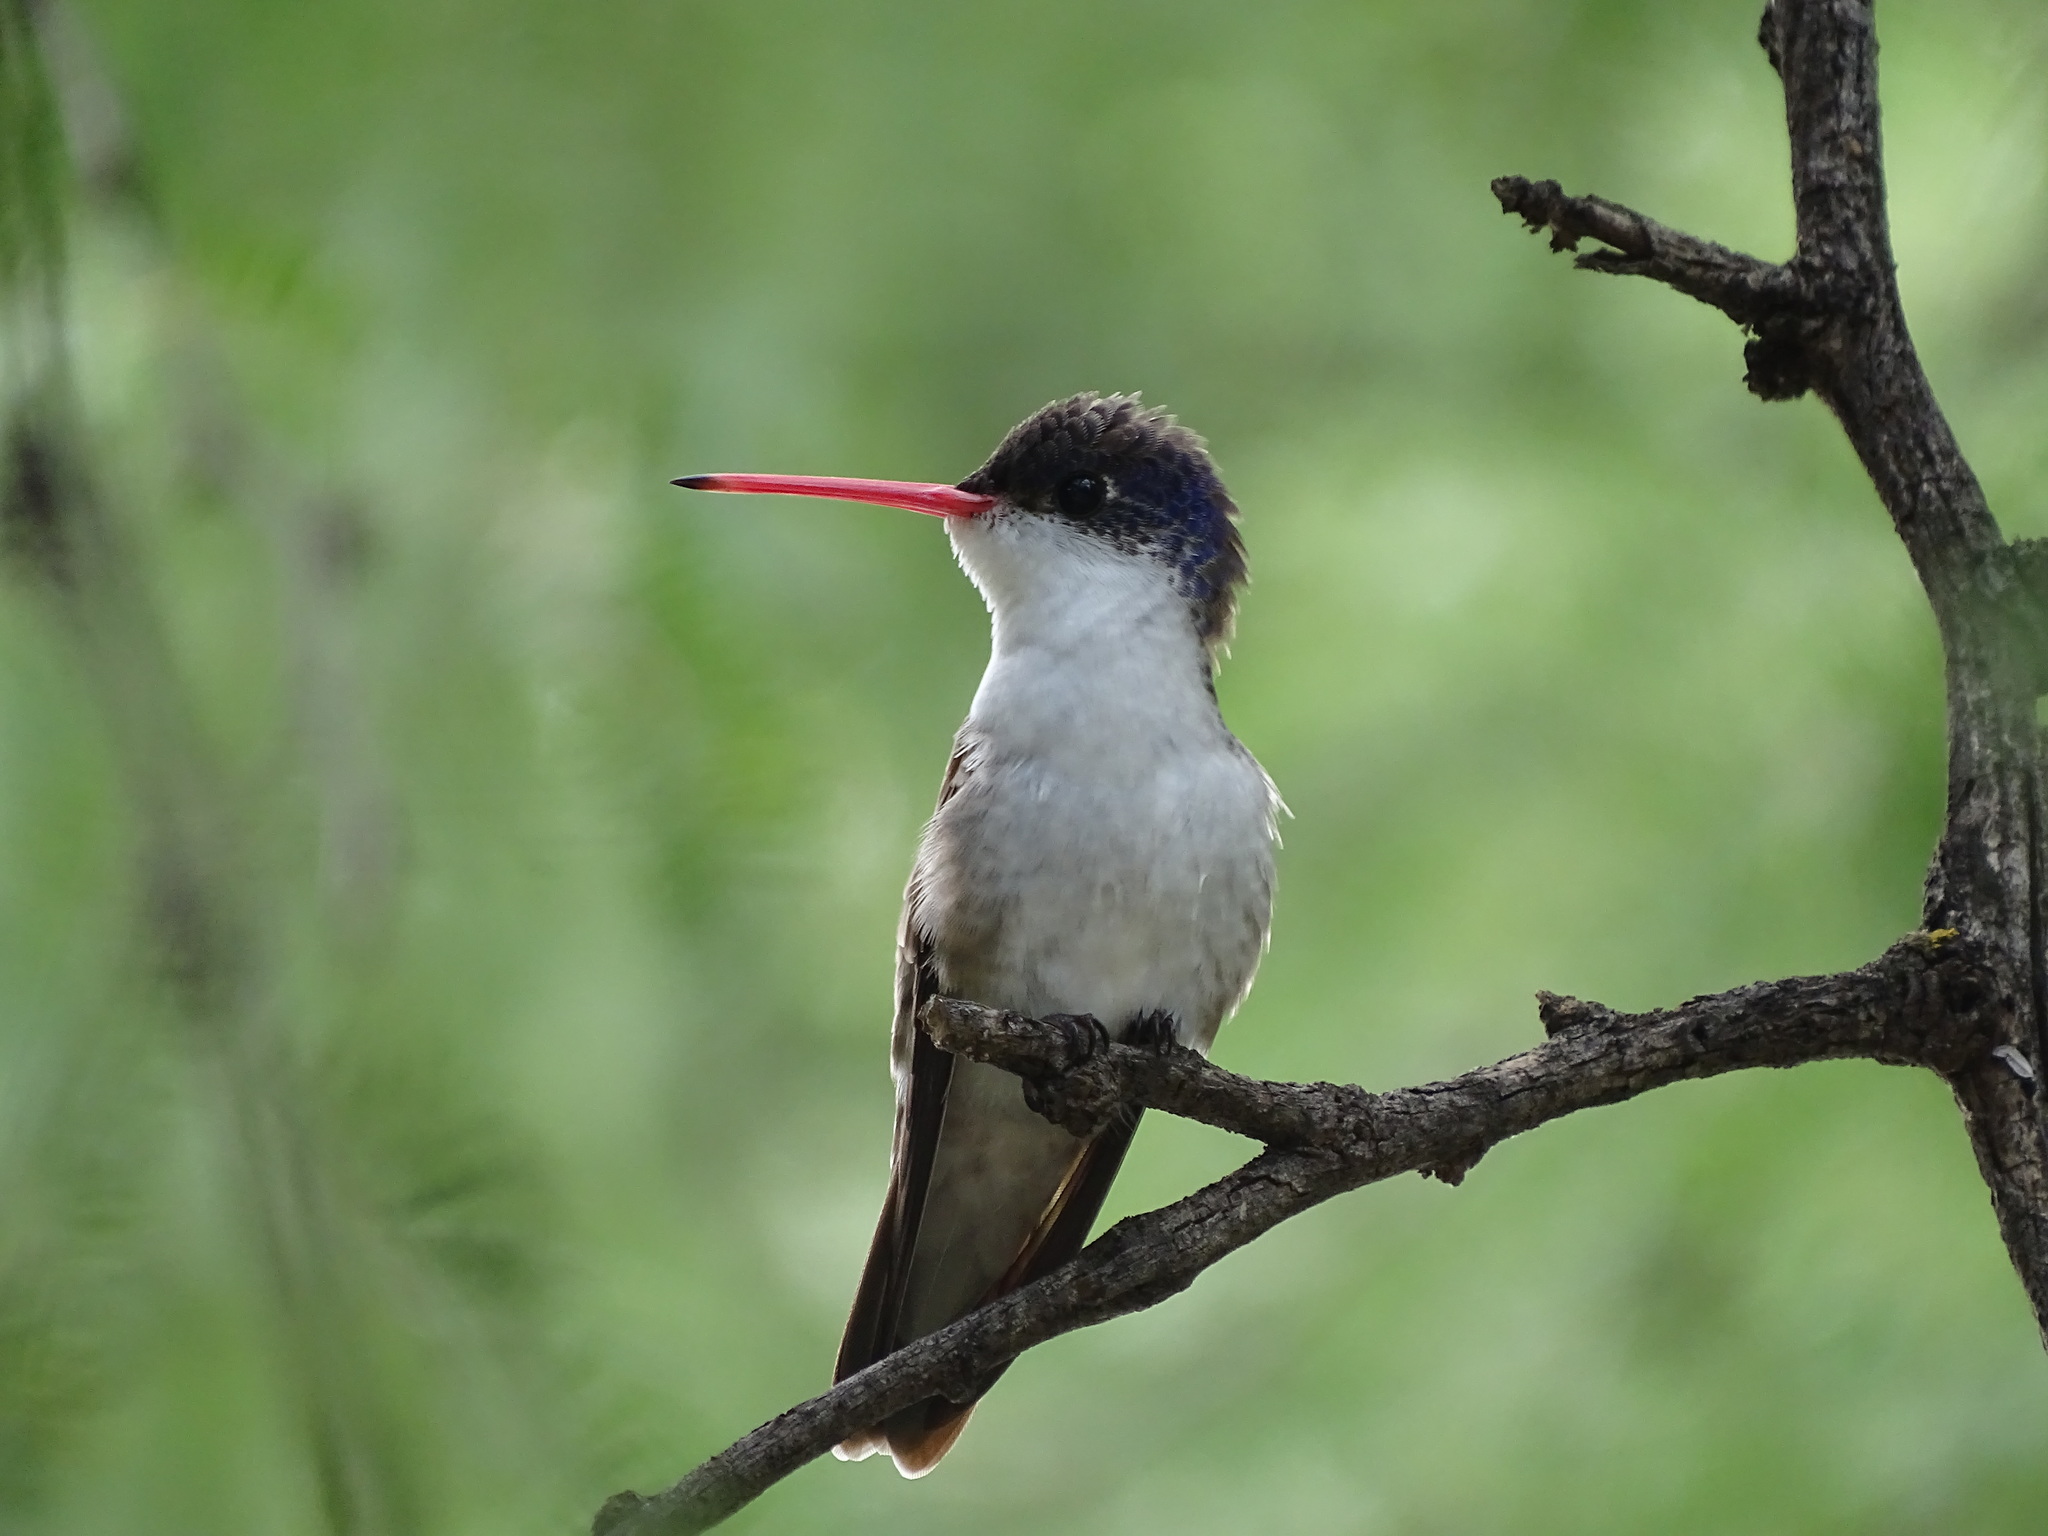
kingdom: Animalia
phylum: Chordata
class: Aves
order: Apodiformes
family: Trochilidae
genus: Leucolia
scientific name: Leucolia violiceps
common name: Violet-crowned hummingbird
